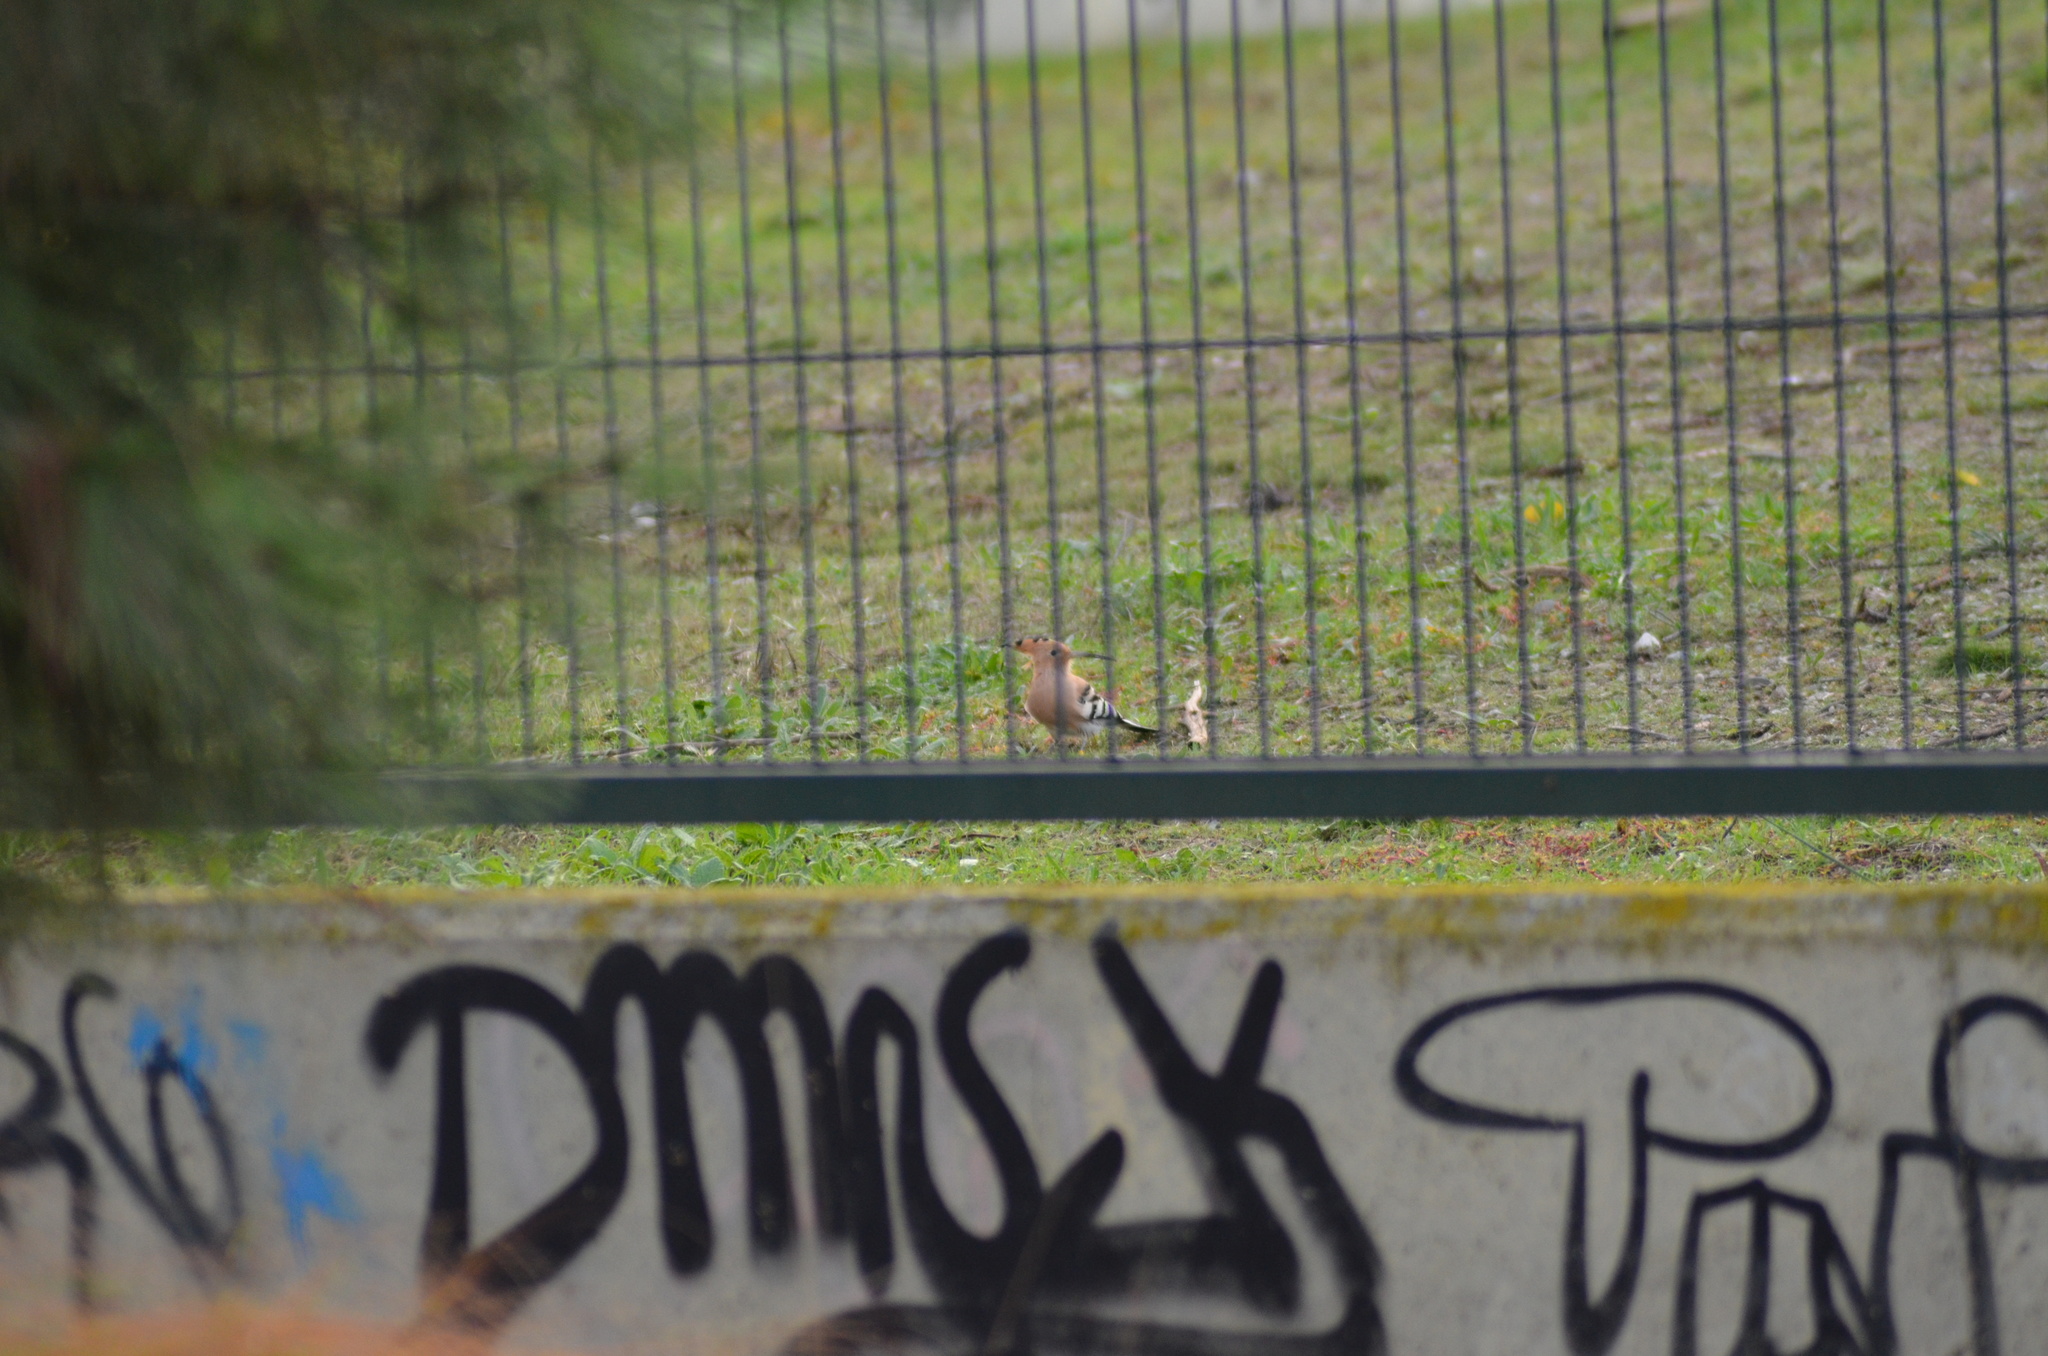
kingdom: Animalia
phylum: Chordata
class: Aves
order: Bucerotiformes
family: Upupidae
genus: Upupa
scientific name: Upupa epops
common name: Eurasian hoopoe
